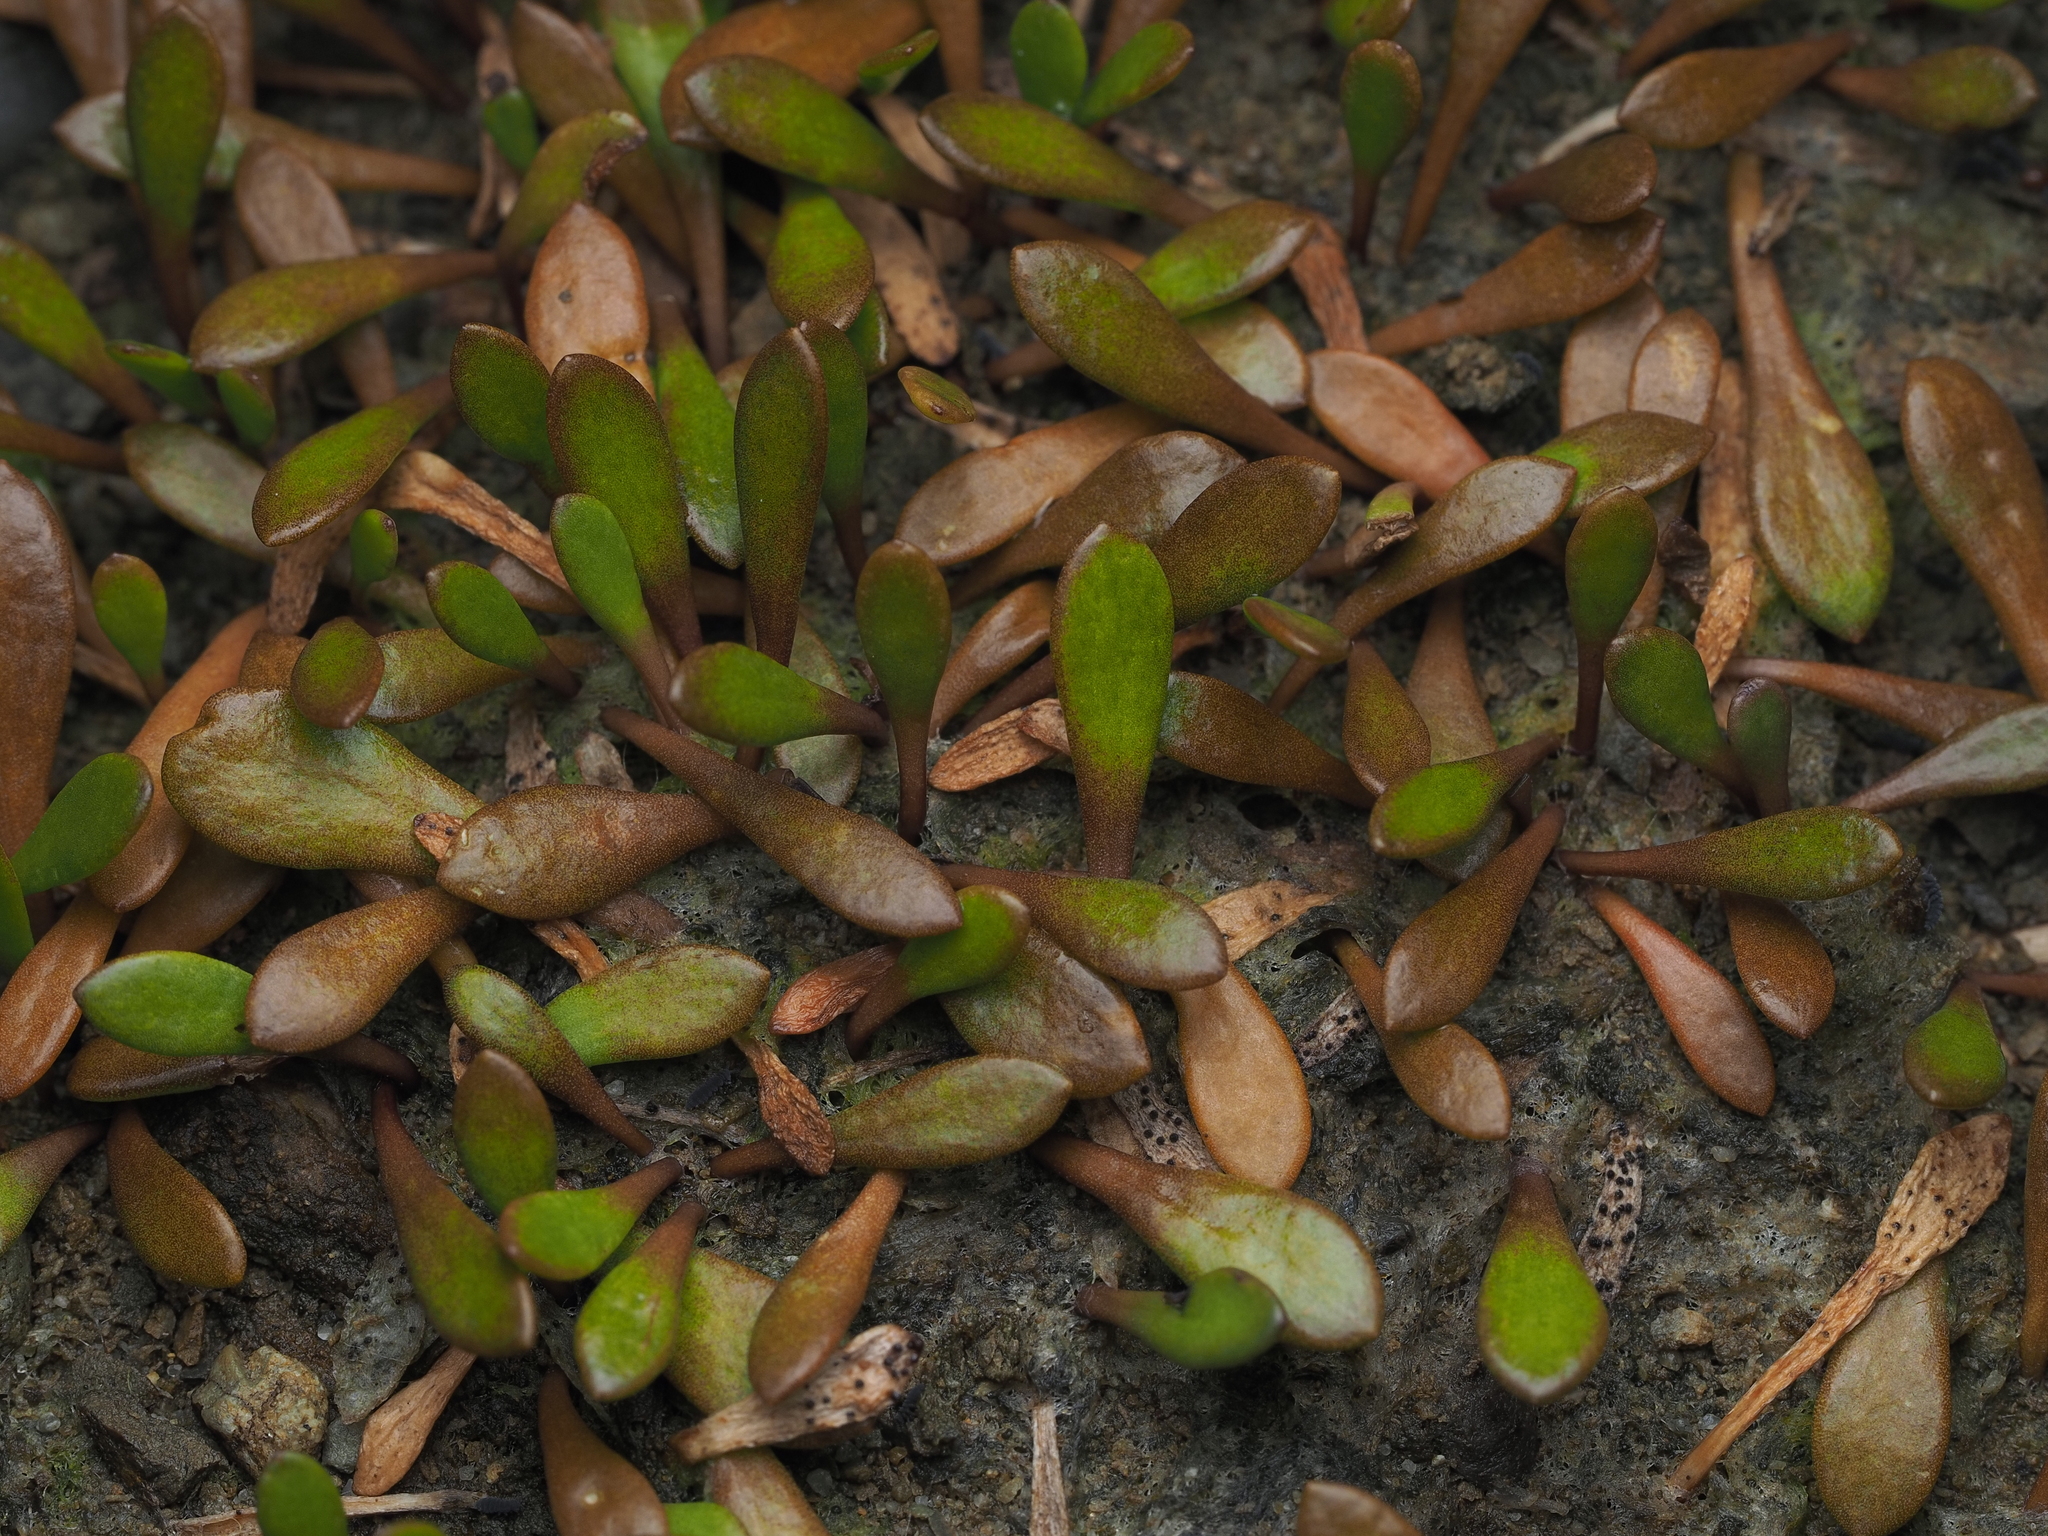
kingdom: Plantae
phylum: Tracheophyta
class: Magnoliopsida
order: Asterales
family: Goodeniaceae
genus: Goodenia
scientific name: Goodenia radicans
